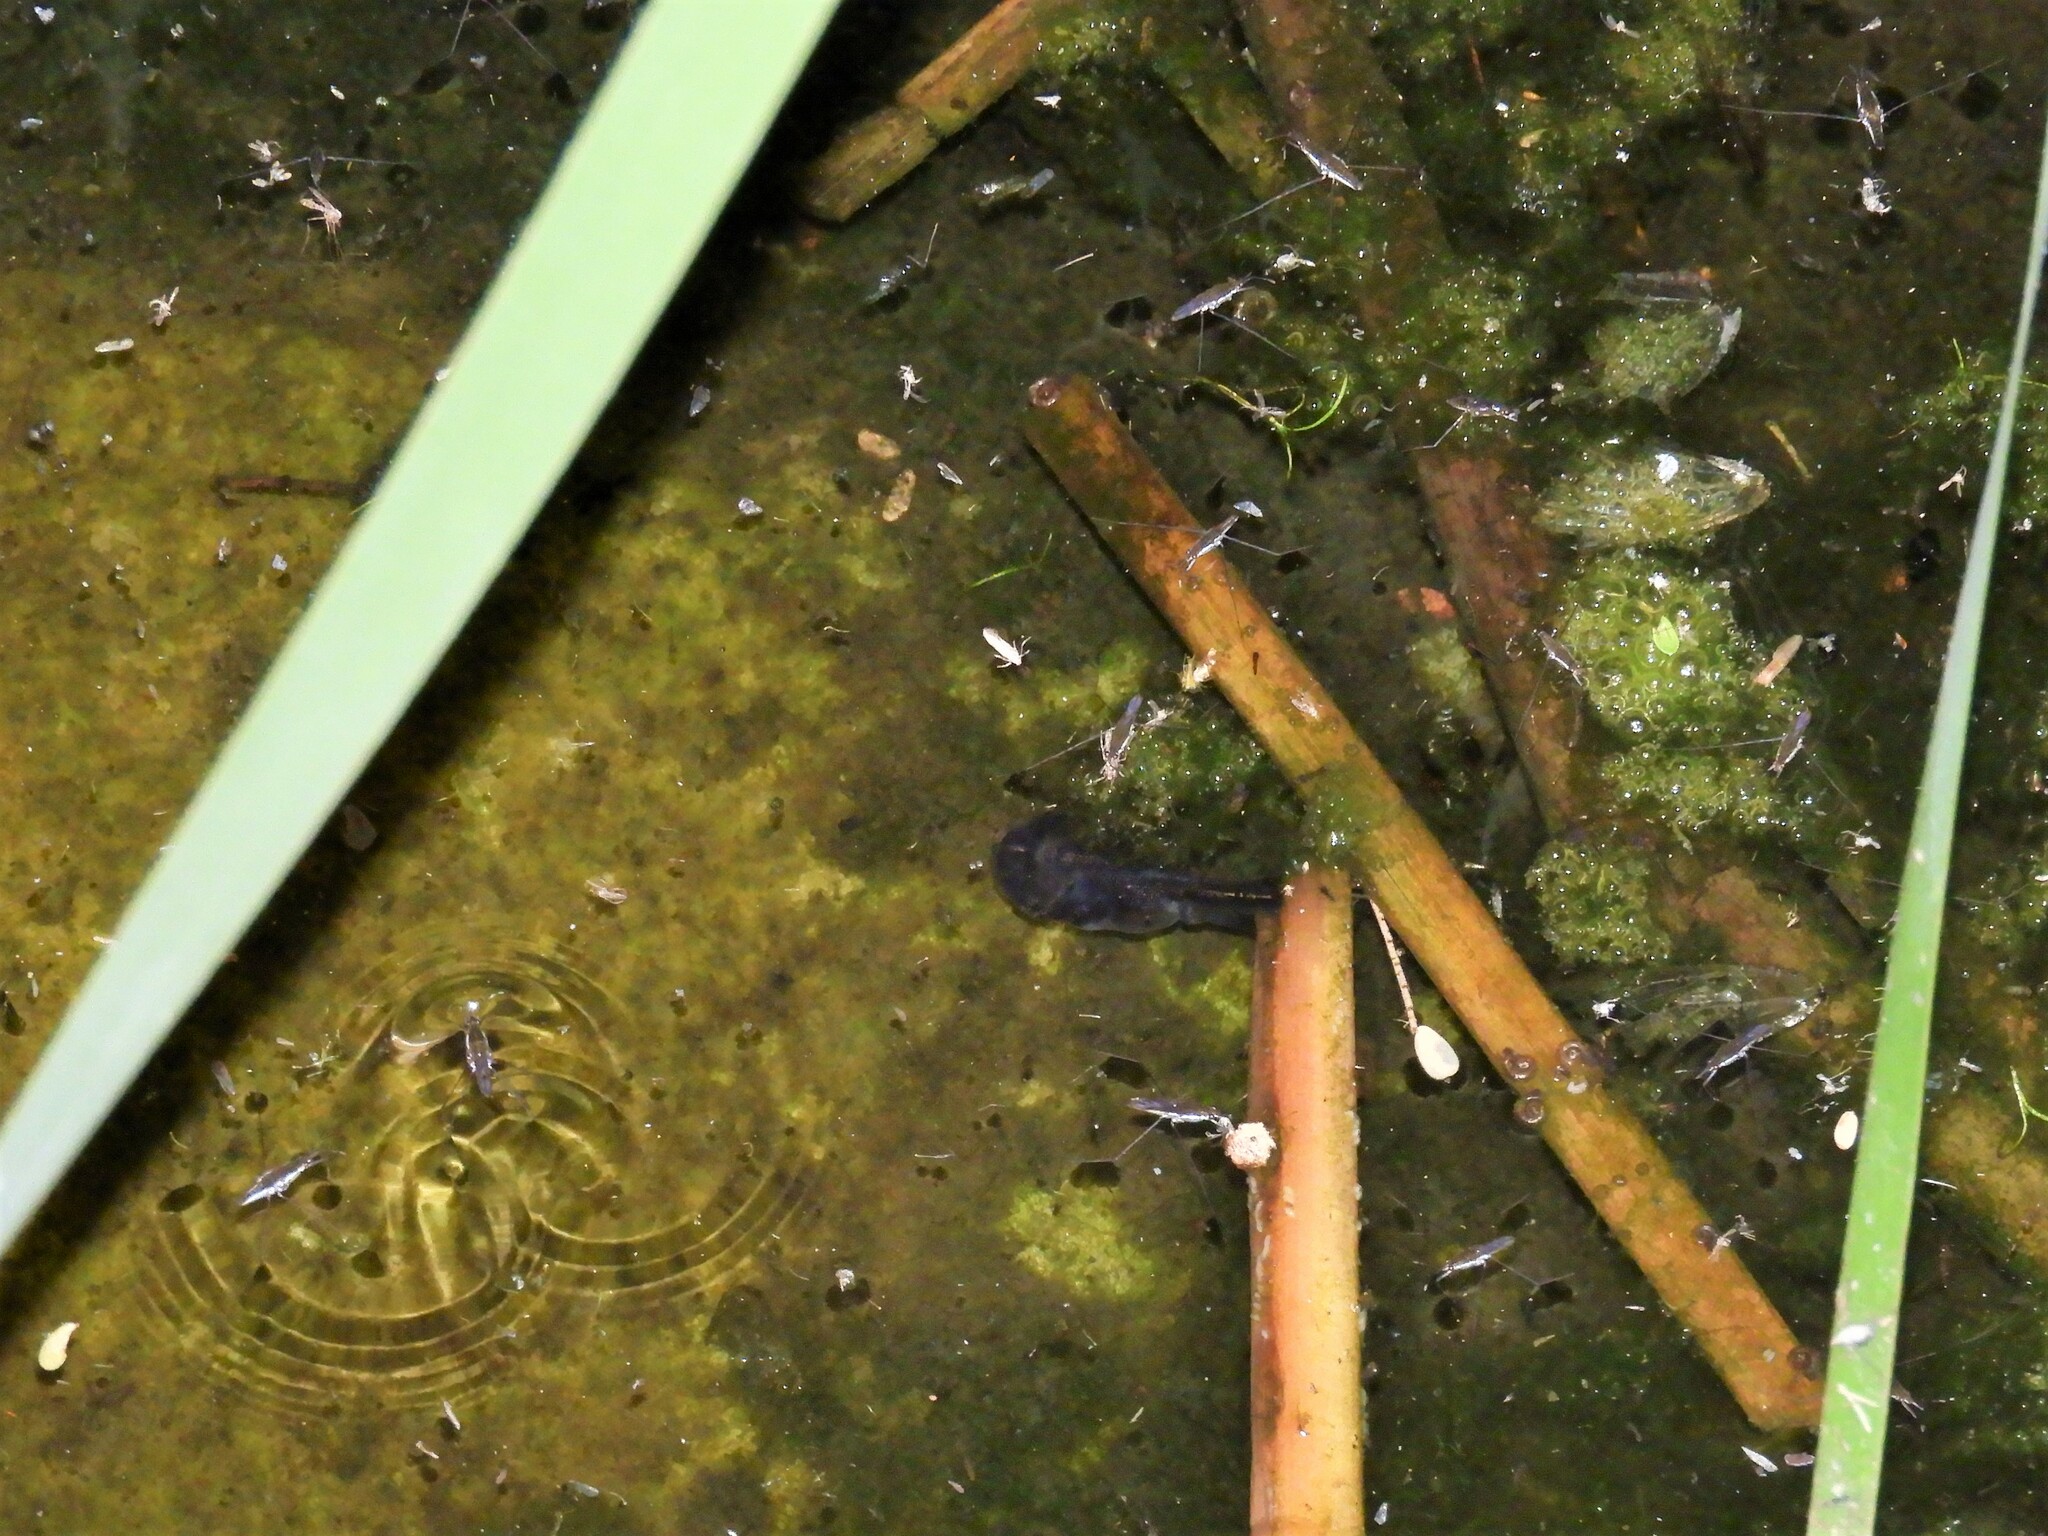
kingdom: Animalia
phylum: Chordata
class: Amphibia
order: Anura
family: Microhylidae
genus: Phrynomantis
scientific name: Phrynomantis annectens
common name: Marbled rubber frog
